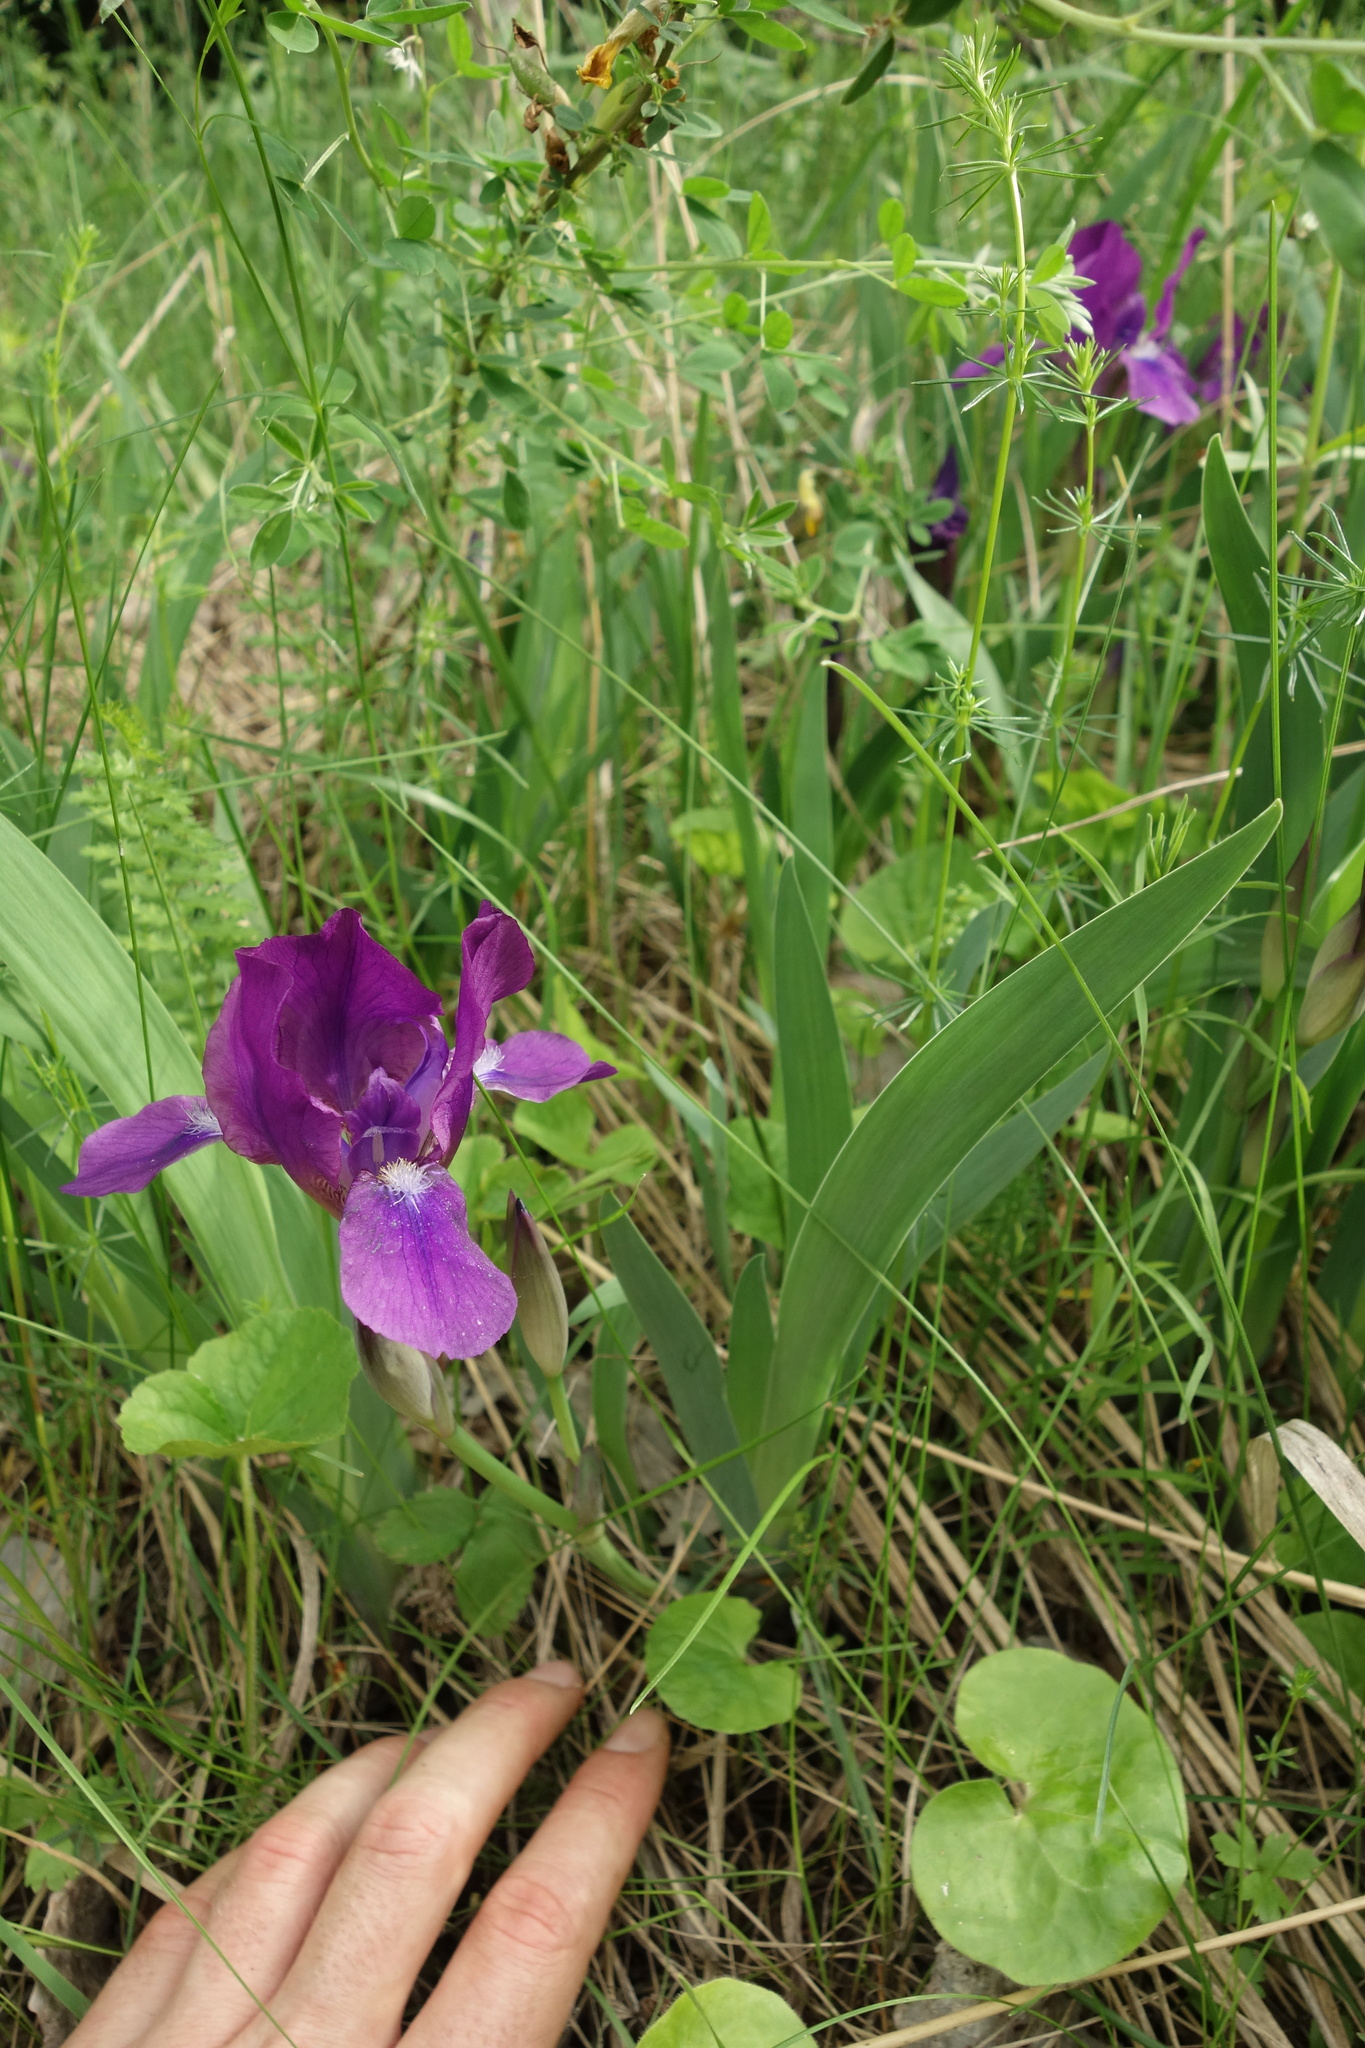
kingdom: Plantae
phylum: Tracheophyta
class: Liliopsida
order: Asparagales
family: Iridaceae
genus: Iris
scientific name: Iris aphylla
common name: Stool iris
